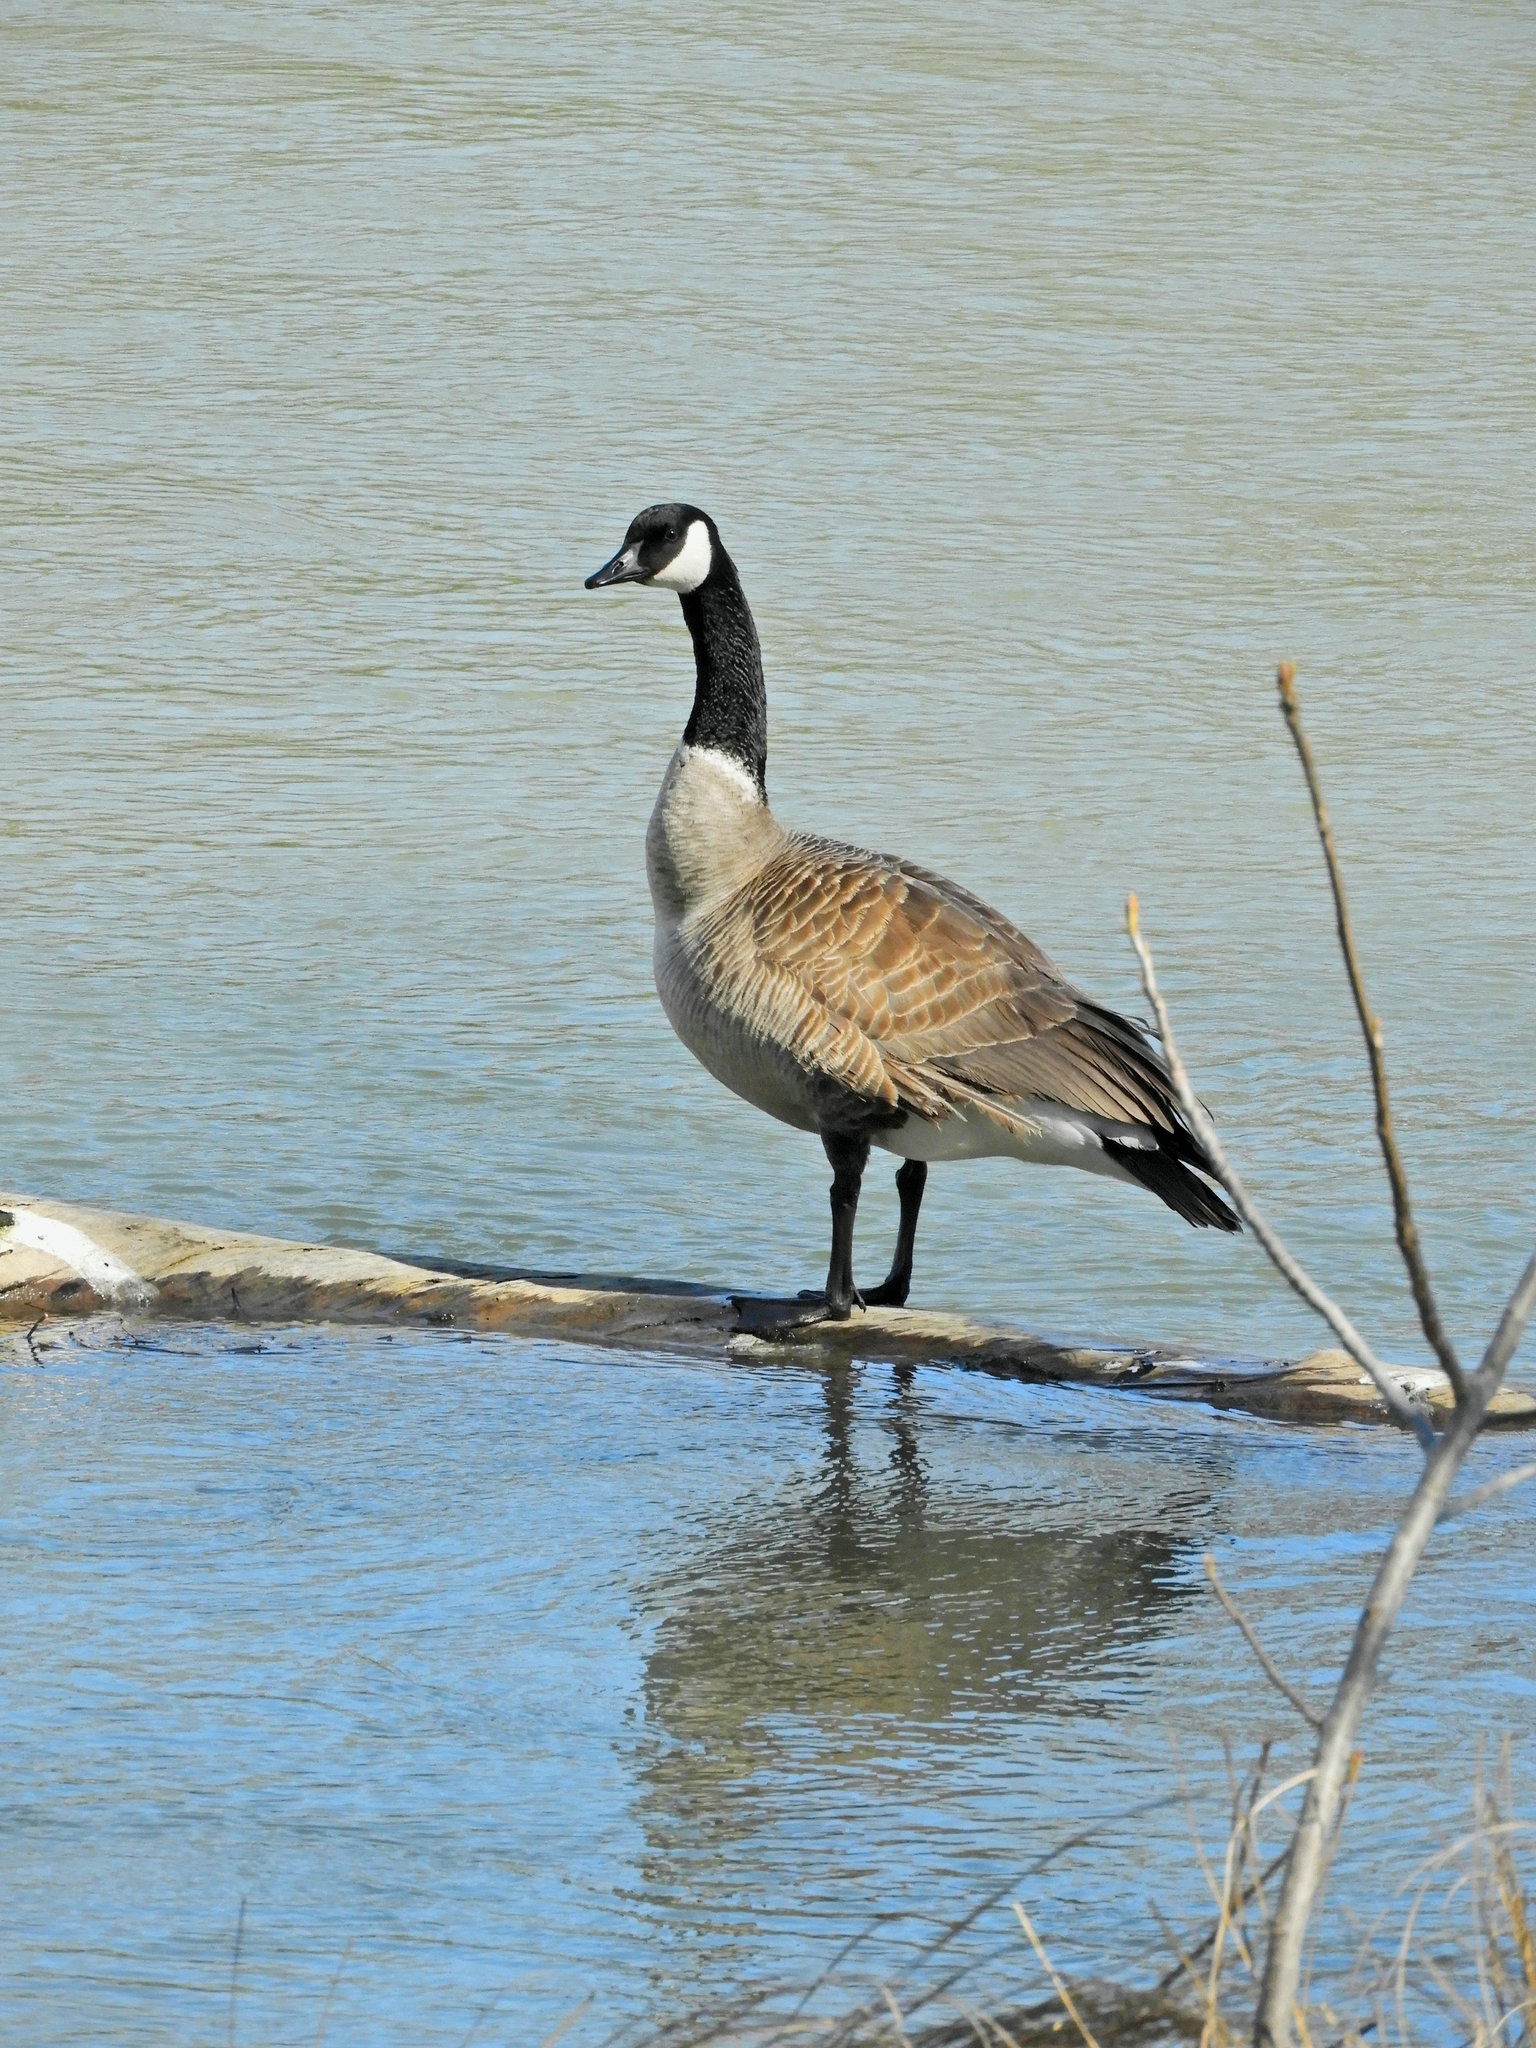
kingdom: Animalia
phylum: Chordata
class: Aves
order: Anseriformes
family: Anatidae
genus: Branta
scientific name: Branta canadensis
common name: Canada goose
